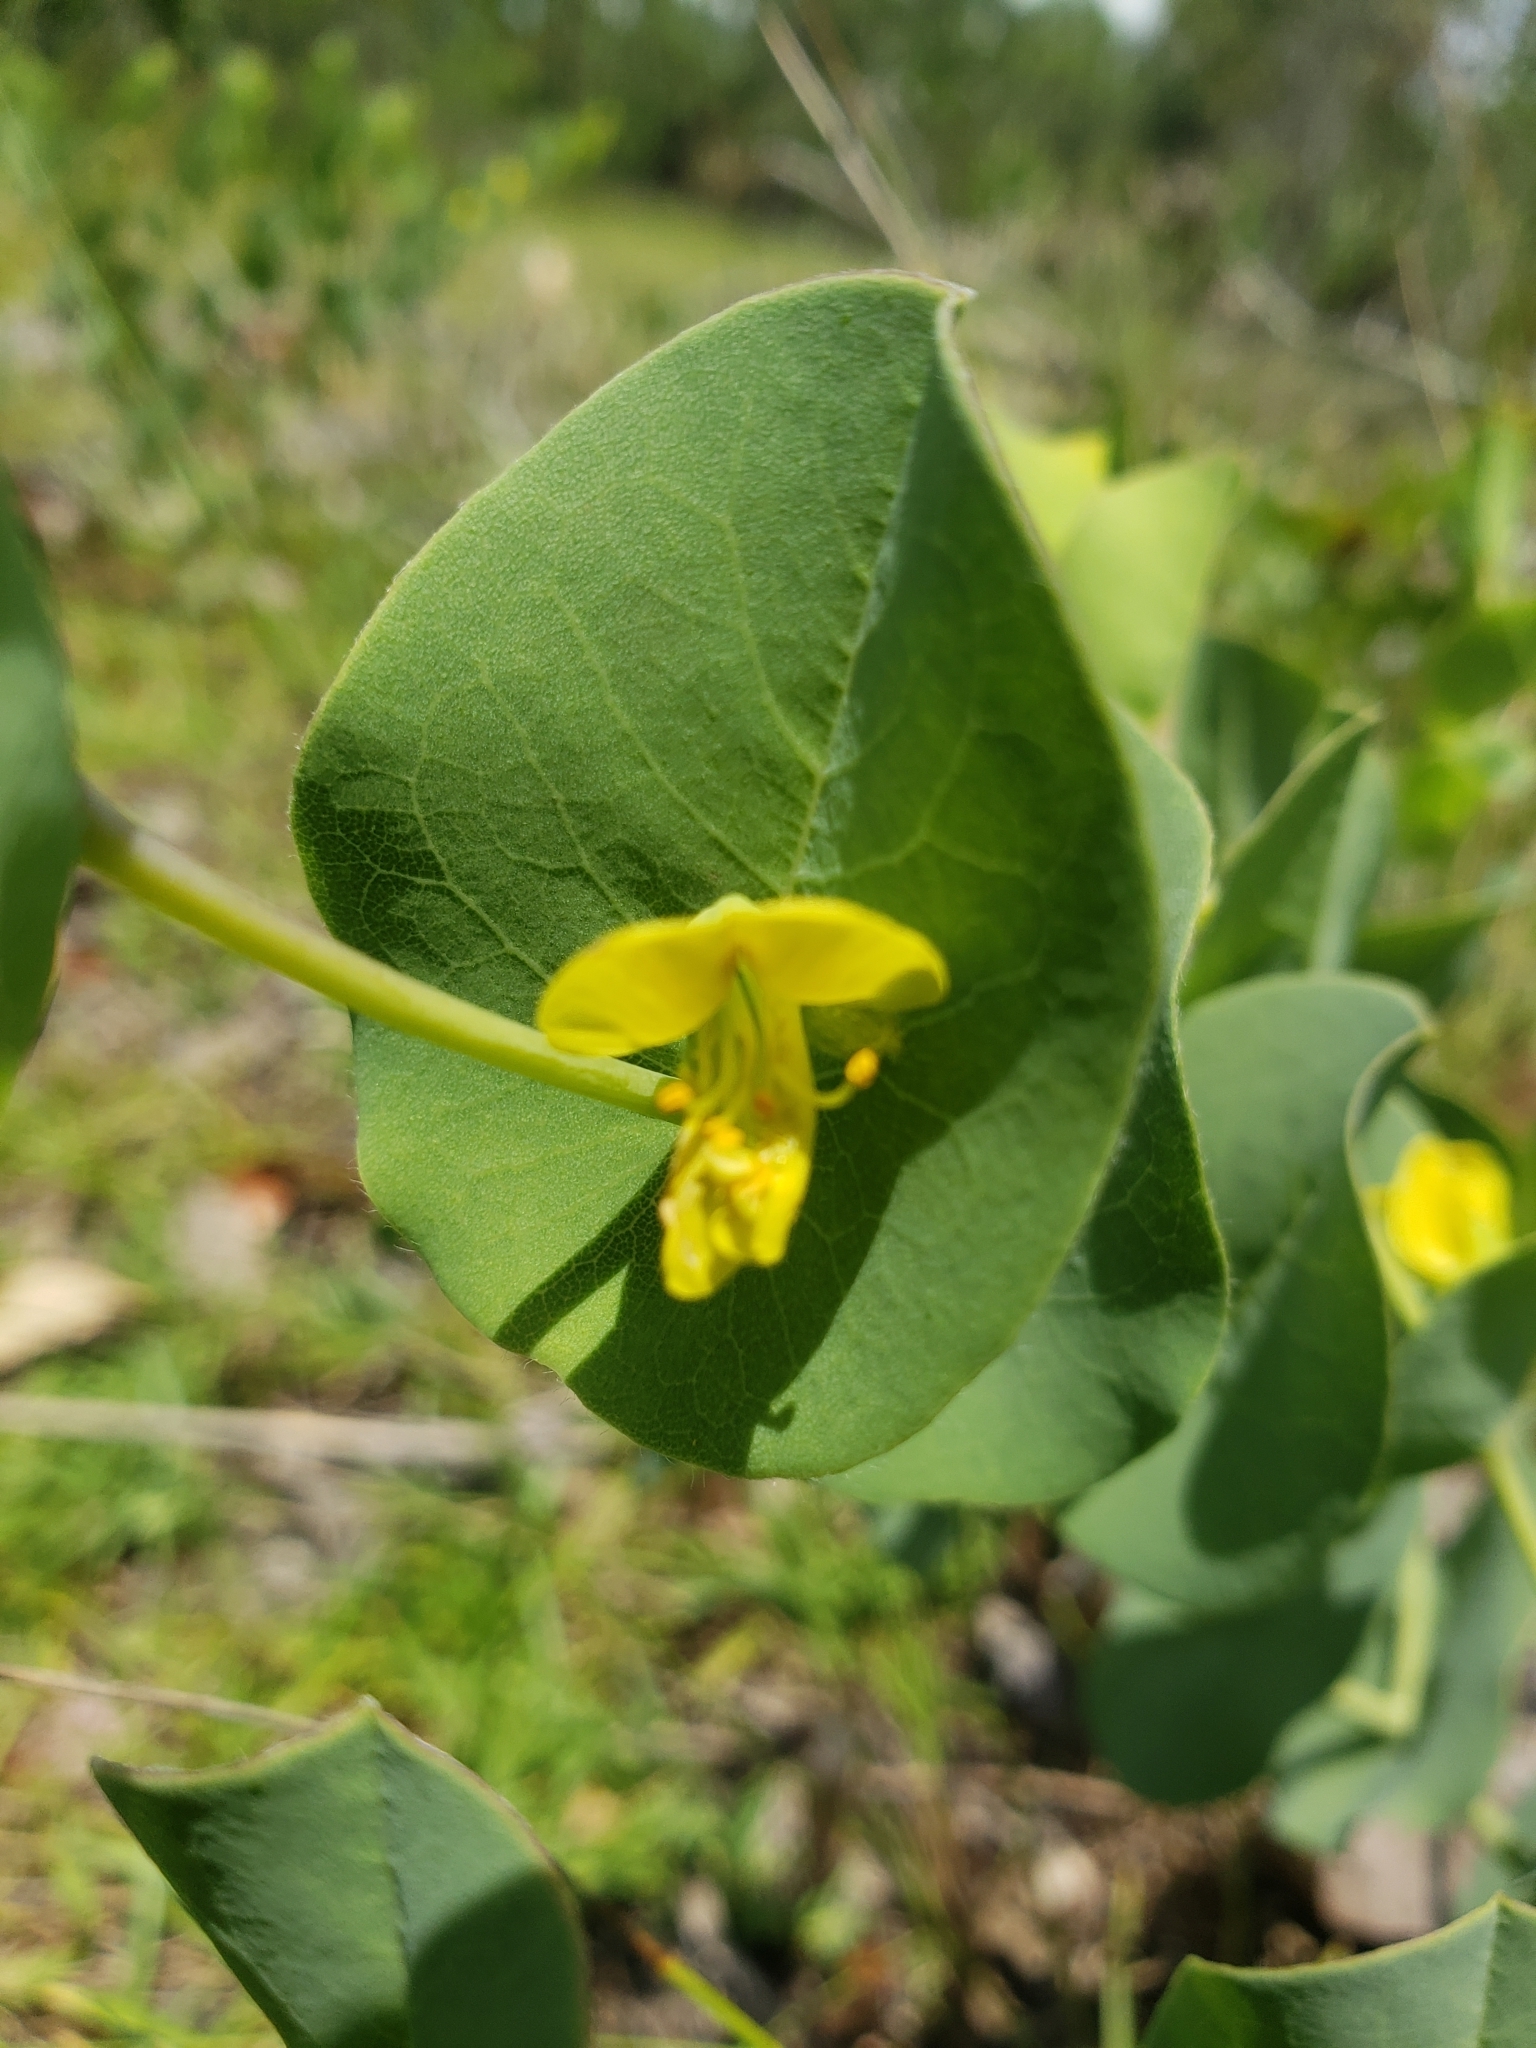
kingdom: Plantae
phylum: Tracheophyta
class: Magnoliopsida
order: Fabales
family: Fabaceae
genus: Baptisia
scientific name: Baptisia perfoliata
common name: Catbells
